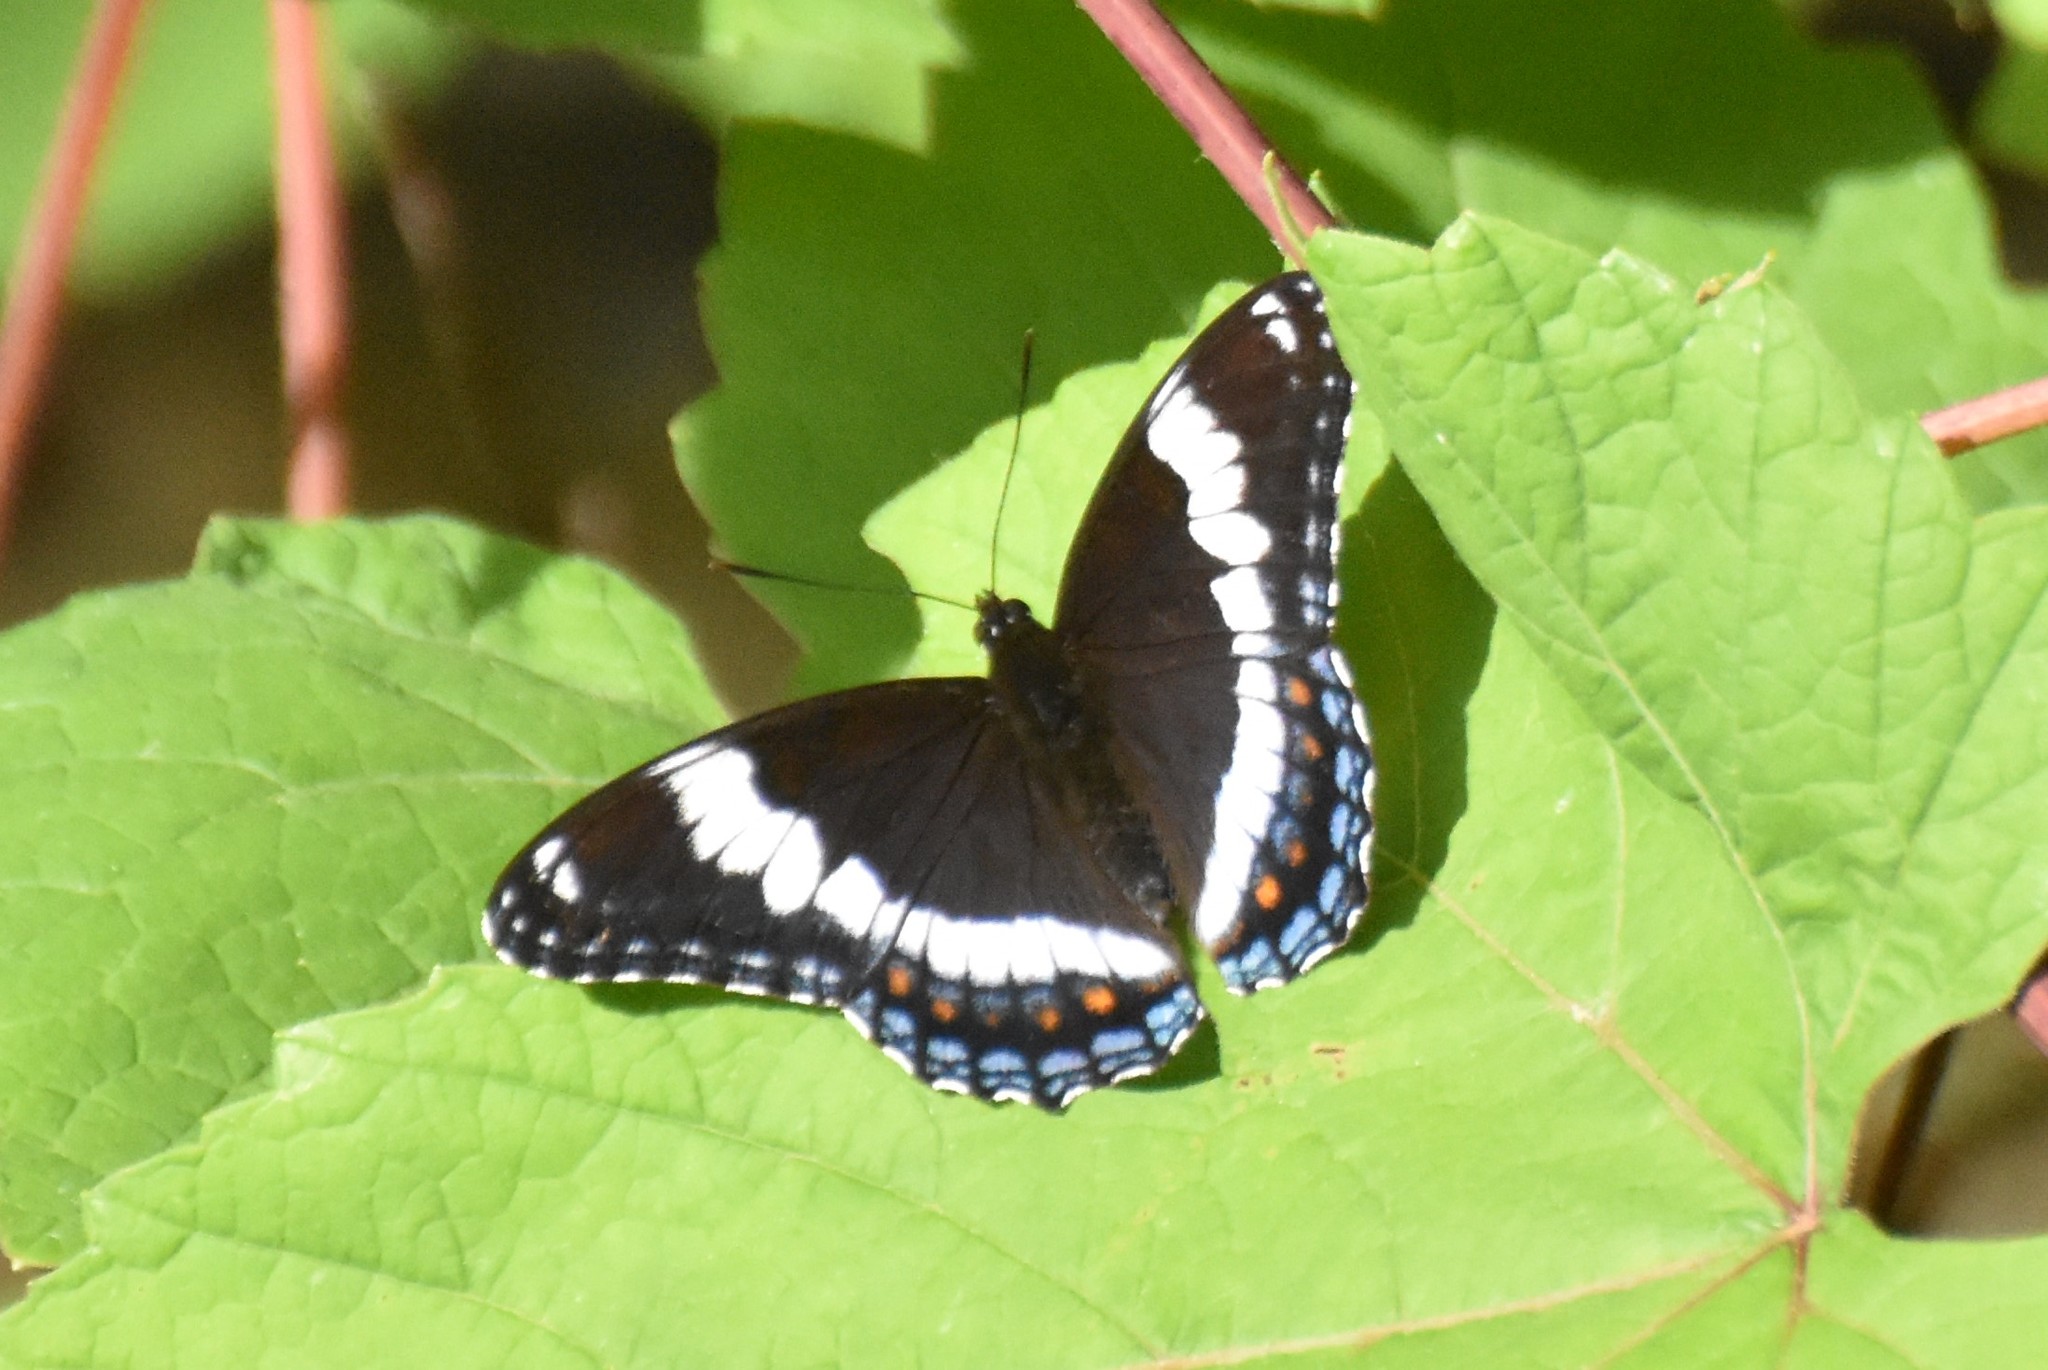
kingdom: Animalia
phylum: Arthropoda
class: Insecta
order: Lepidoptera
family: Nymphalidae
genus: Limenitis
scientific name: Limenitis arthemis
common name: Red-spotted admiral
